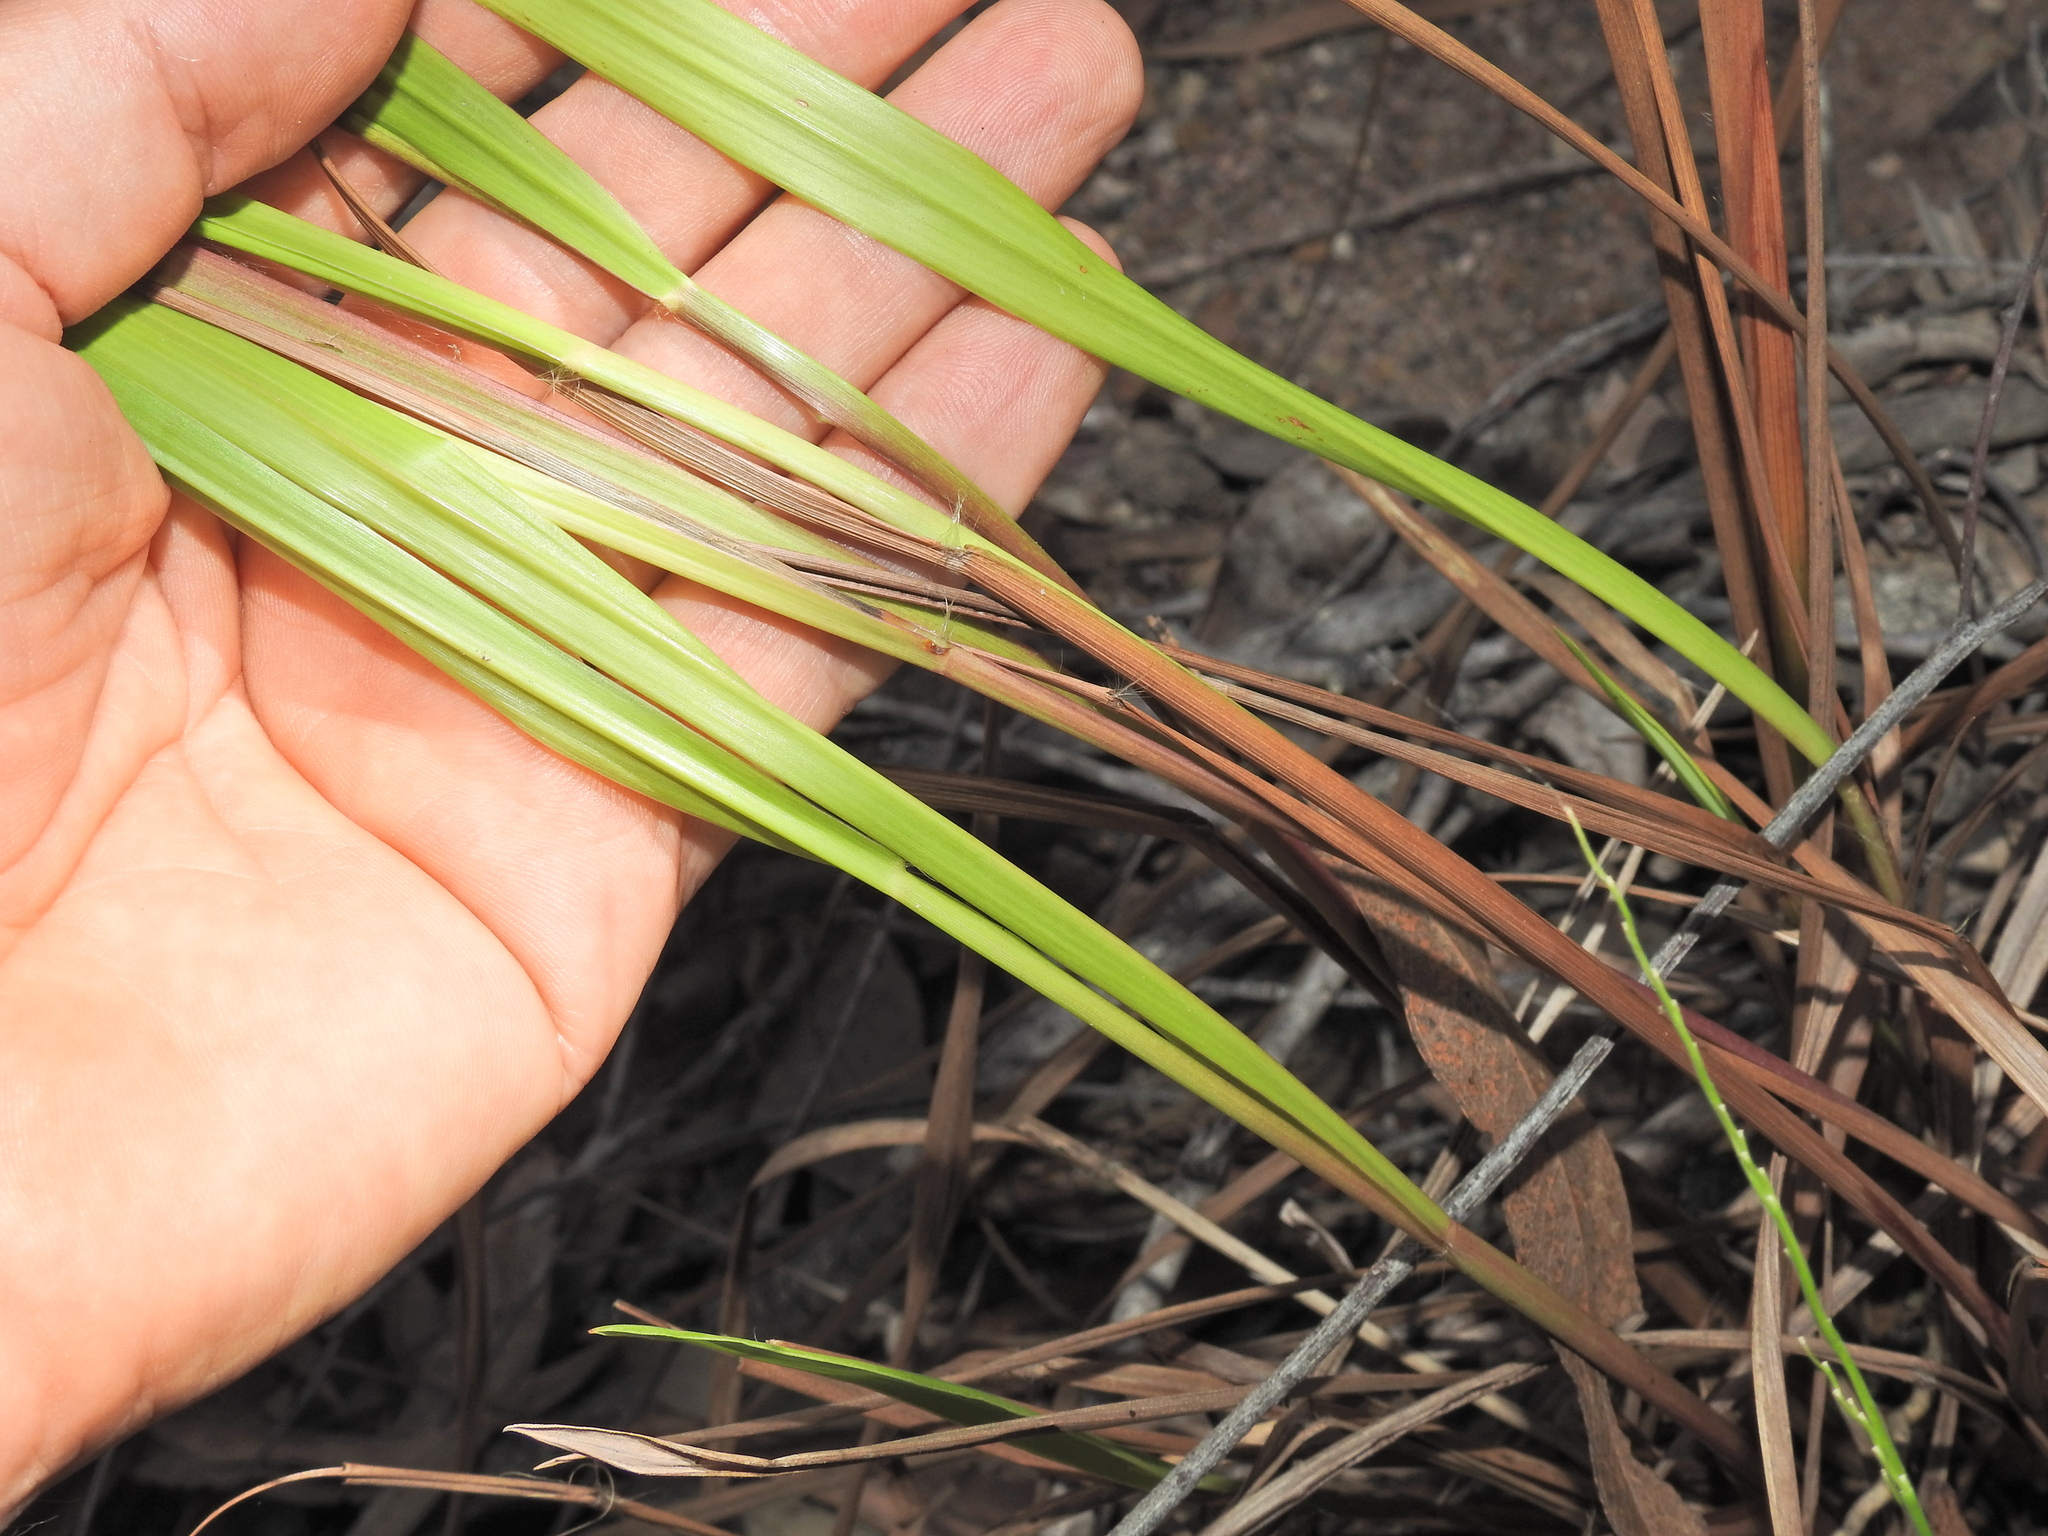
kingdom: Plantae
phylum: Tracheophyta
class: Liliopsida
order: Poales
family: Poaceae
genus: Paspalum
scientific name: Paspalum scrobiculatum
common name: Kodo millet
